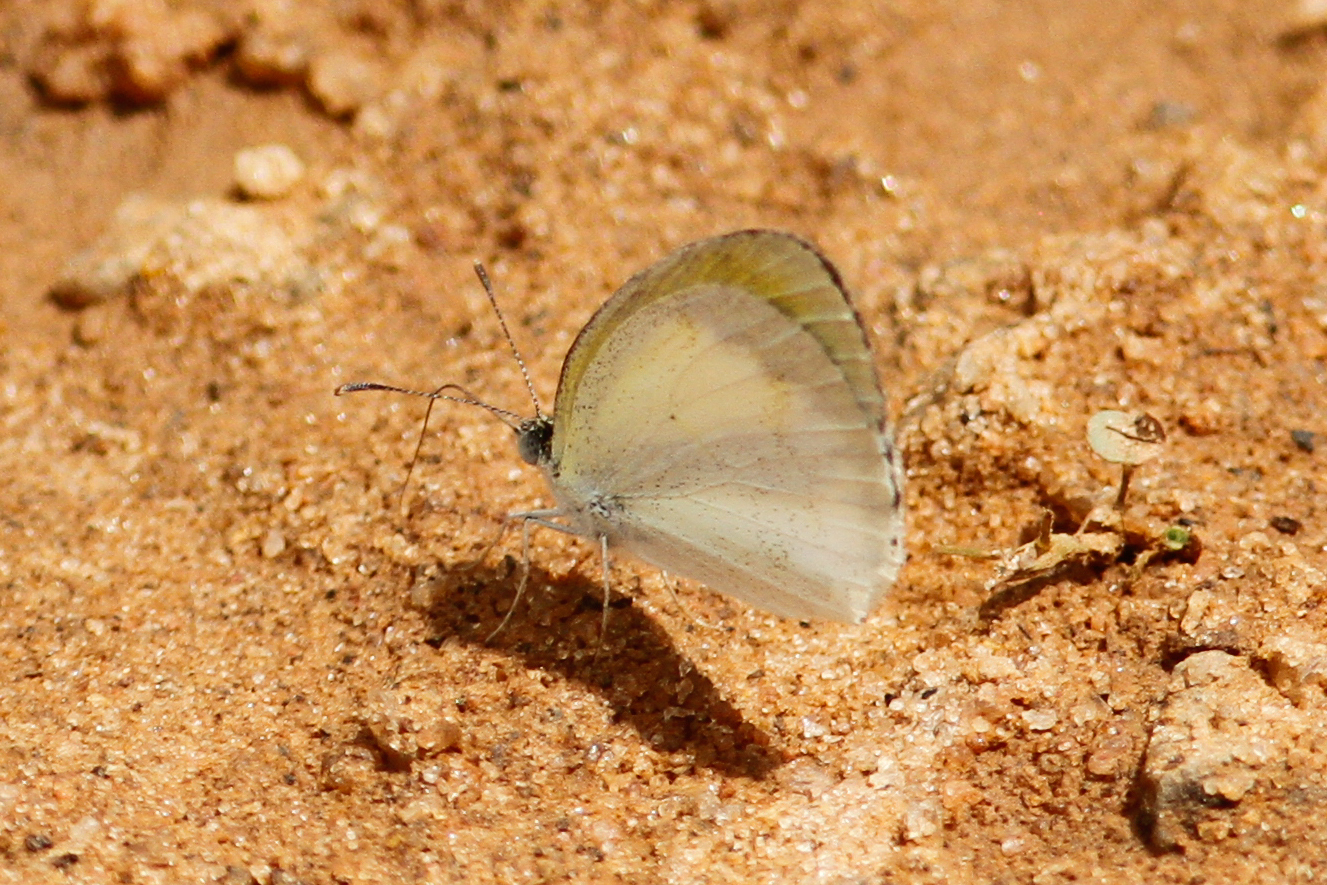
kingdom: Animalia
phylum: Arthropoda
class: Insecta
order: Lepidoptera
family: Pieridae
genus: Eurema
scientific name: Eurema elathea
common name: Banded yellow
